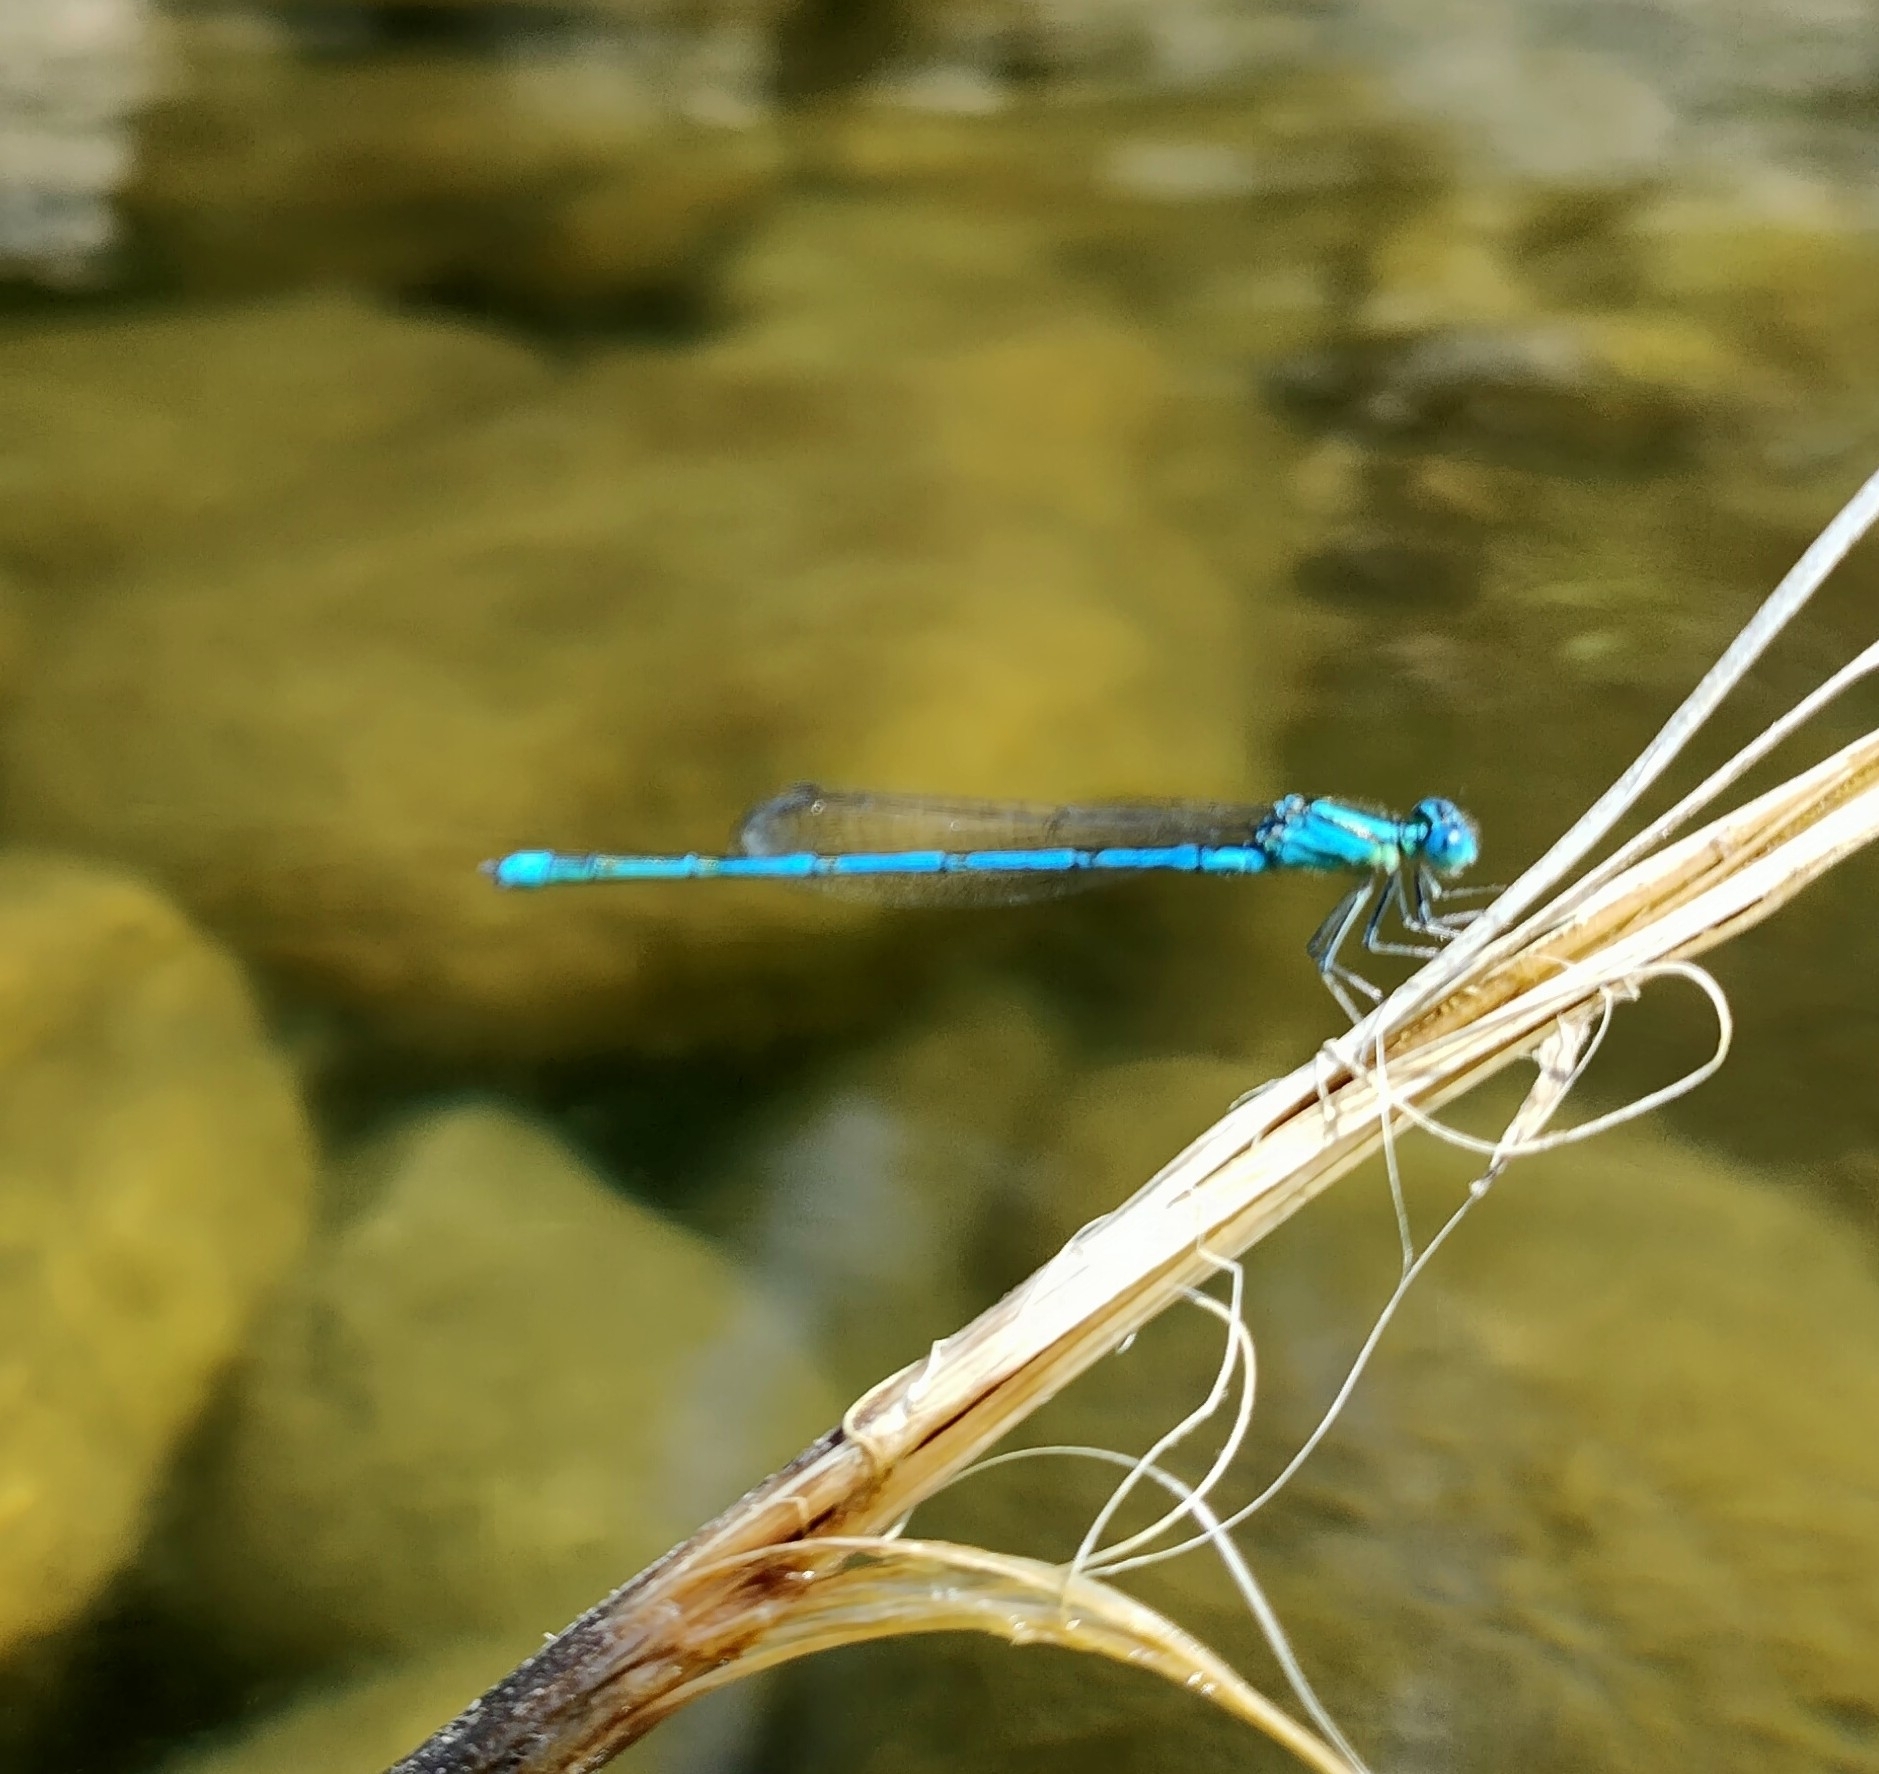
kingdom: Animalia
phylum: Arthropoda
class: Insecta
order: Odonata
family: Coenagrionidae
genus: Erythromma
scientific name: Erythromma lindenii
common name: Blue-eye
